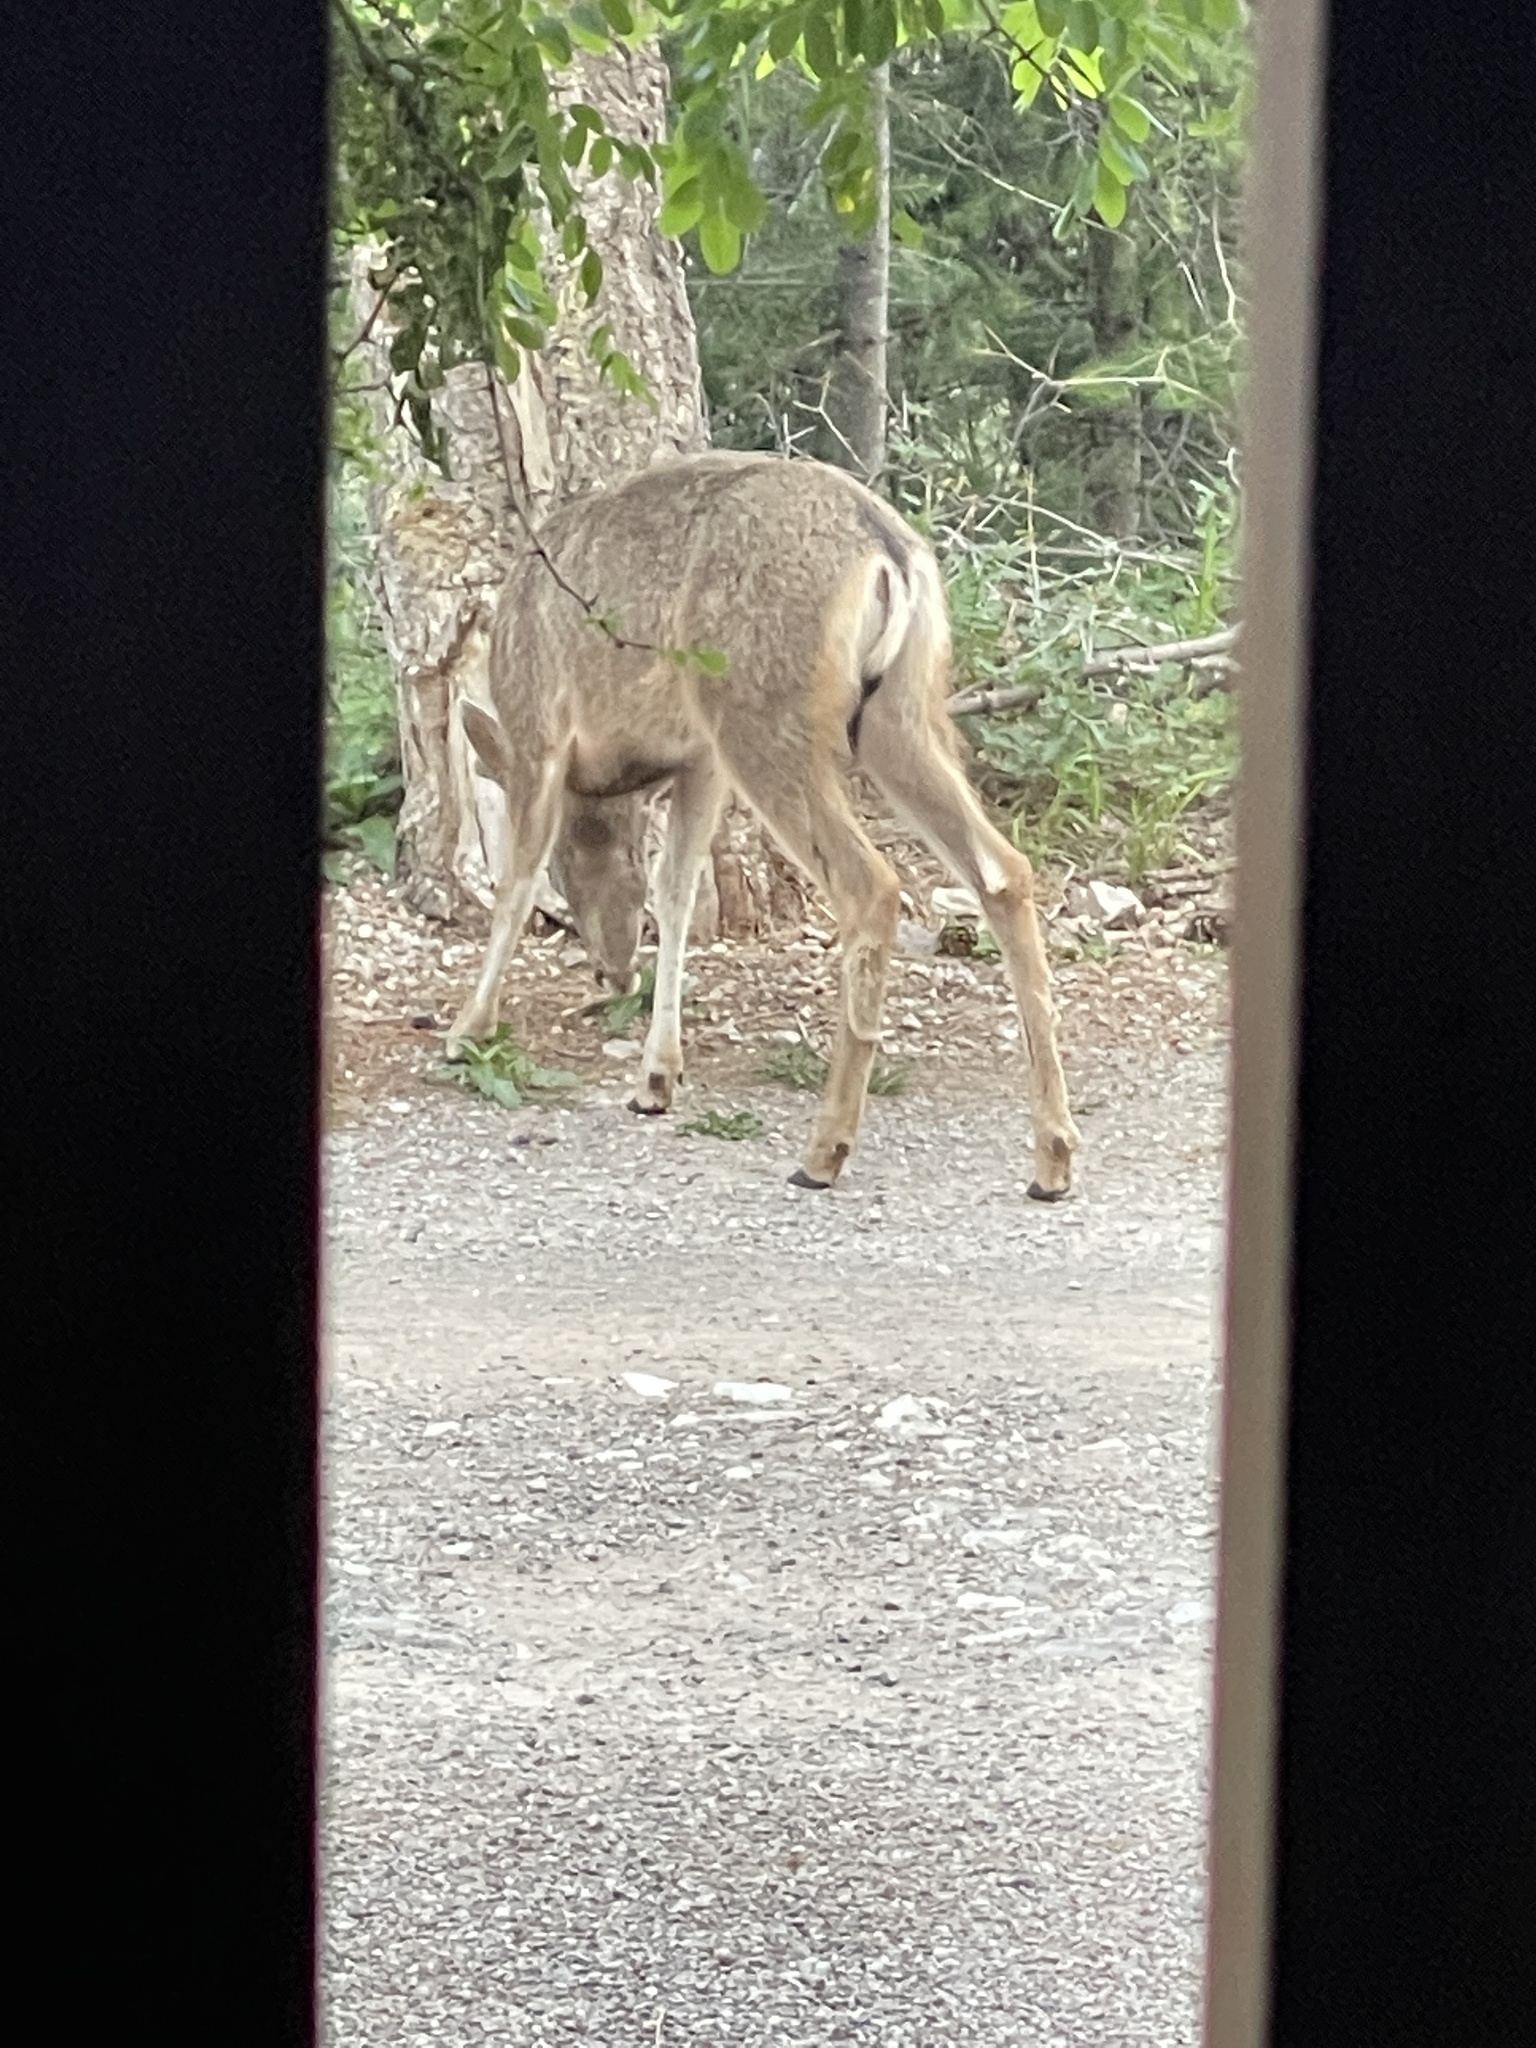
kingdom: Animalia
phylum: Chordata
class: Mammalia
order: Artiodactyla
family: Cervidae
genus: Odocoileus
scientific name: Odocoileus hemionus
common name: Mule deer
